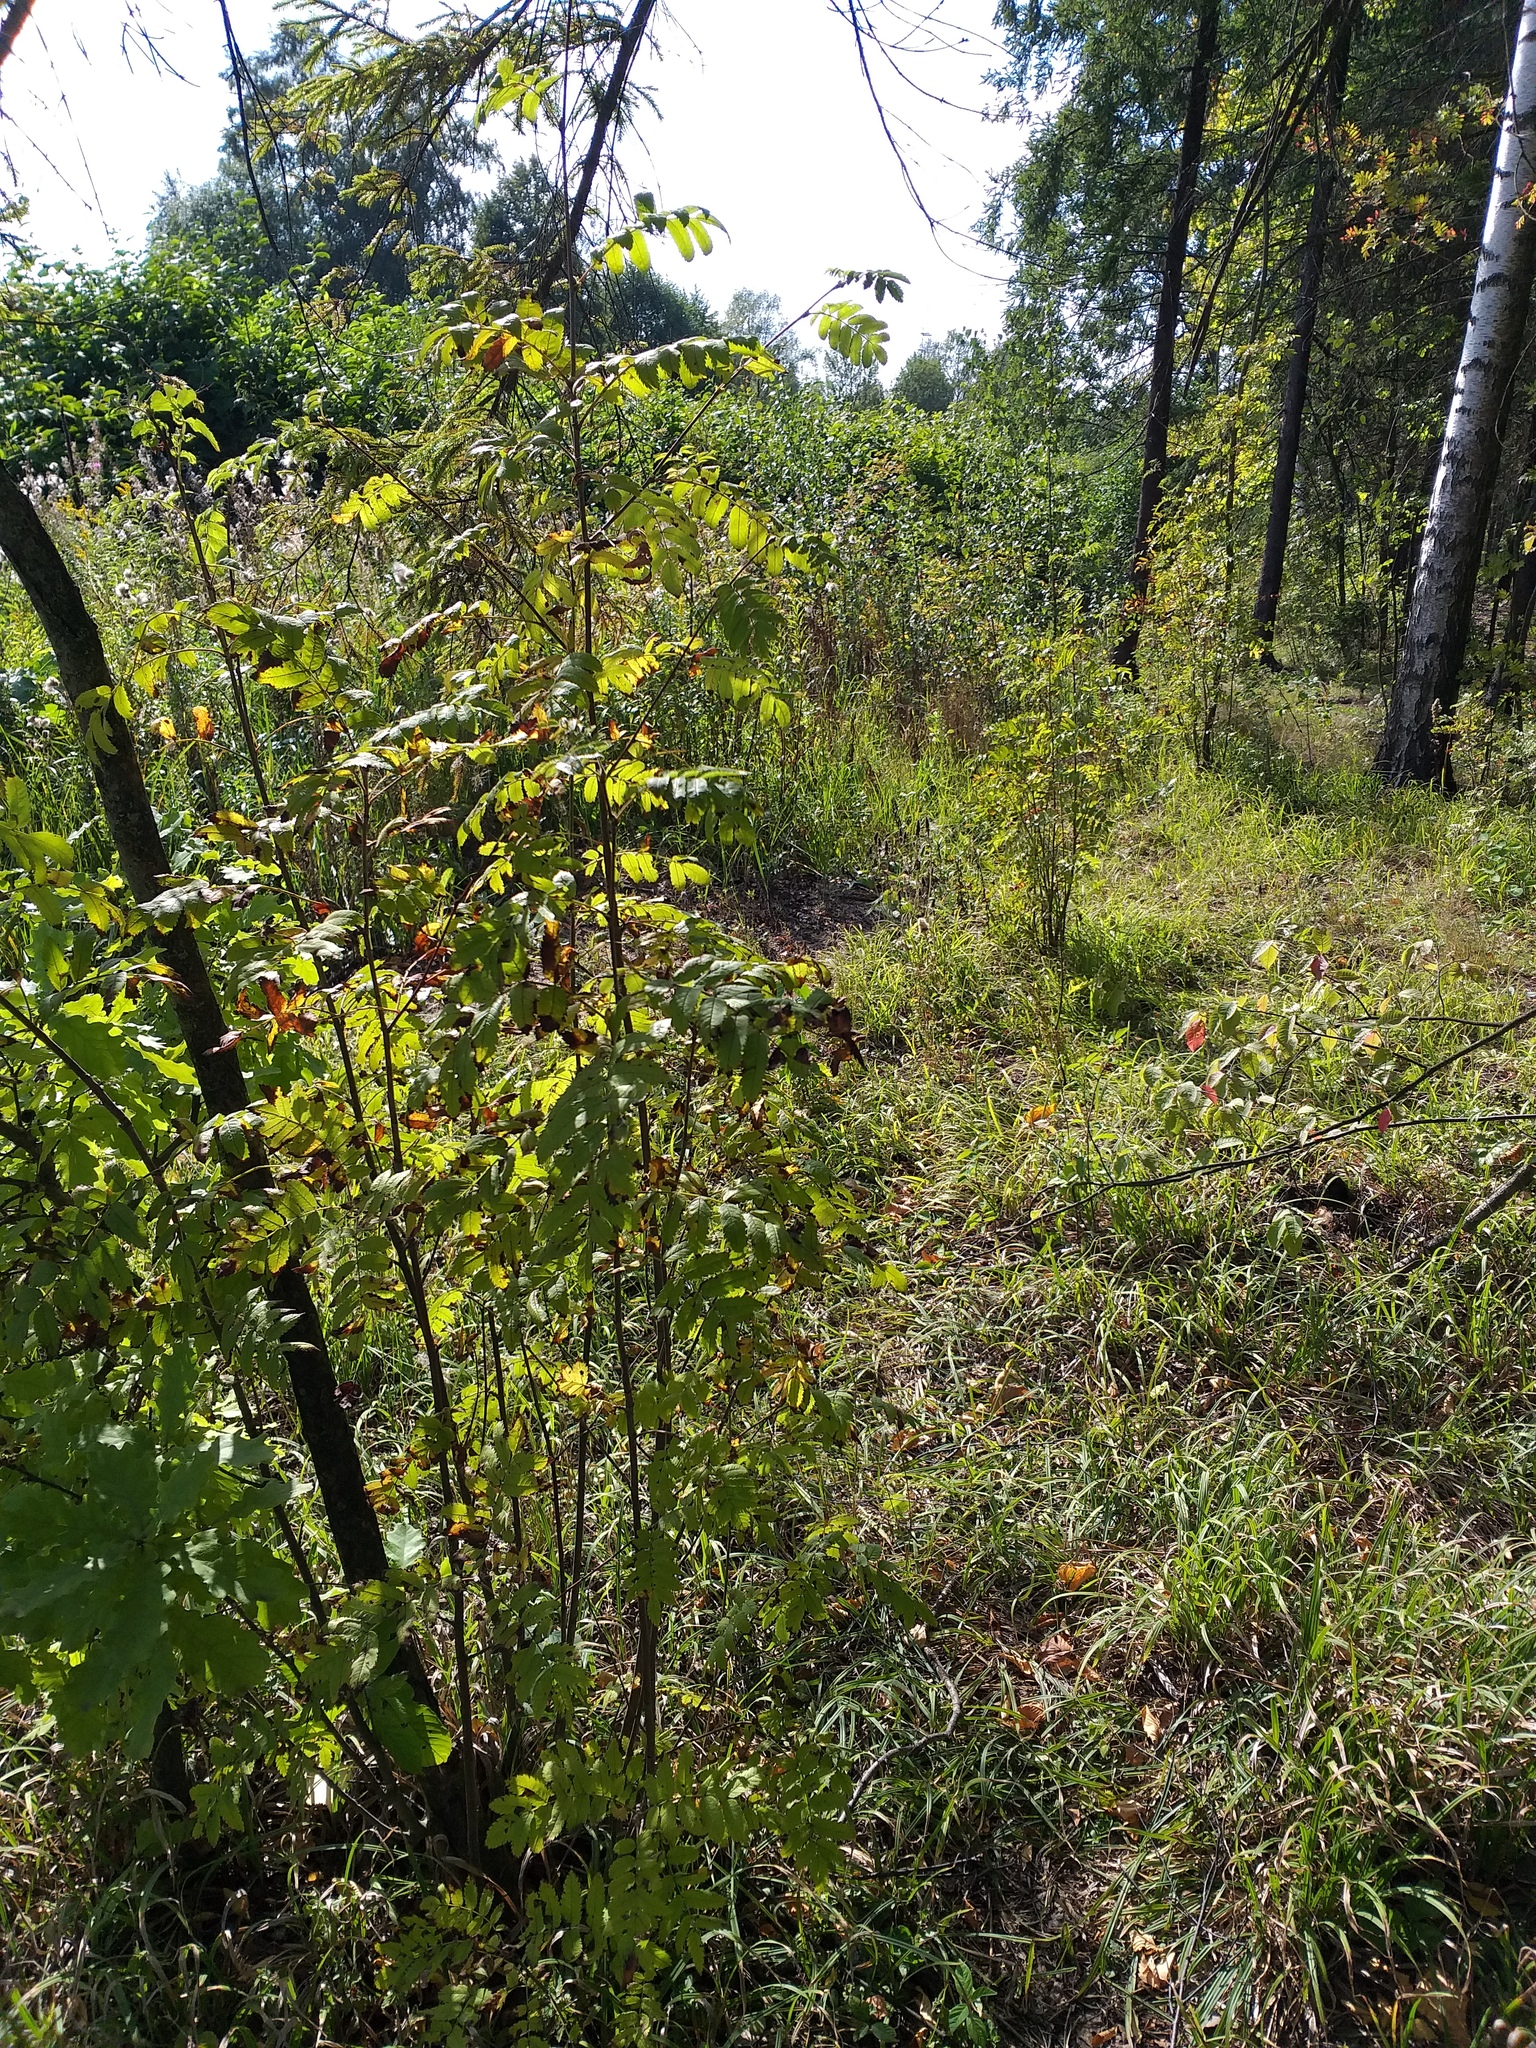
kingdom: Plantae
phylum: Tracheophyta
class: Magnoliopsida
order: Rosales
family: Rosaceae
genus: Sorbus
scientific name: Sorbus aucuparia
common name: Rowan
